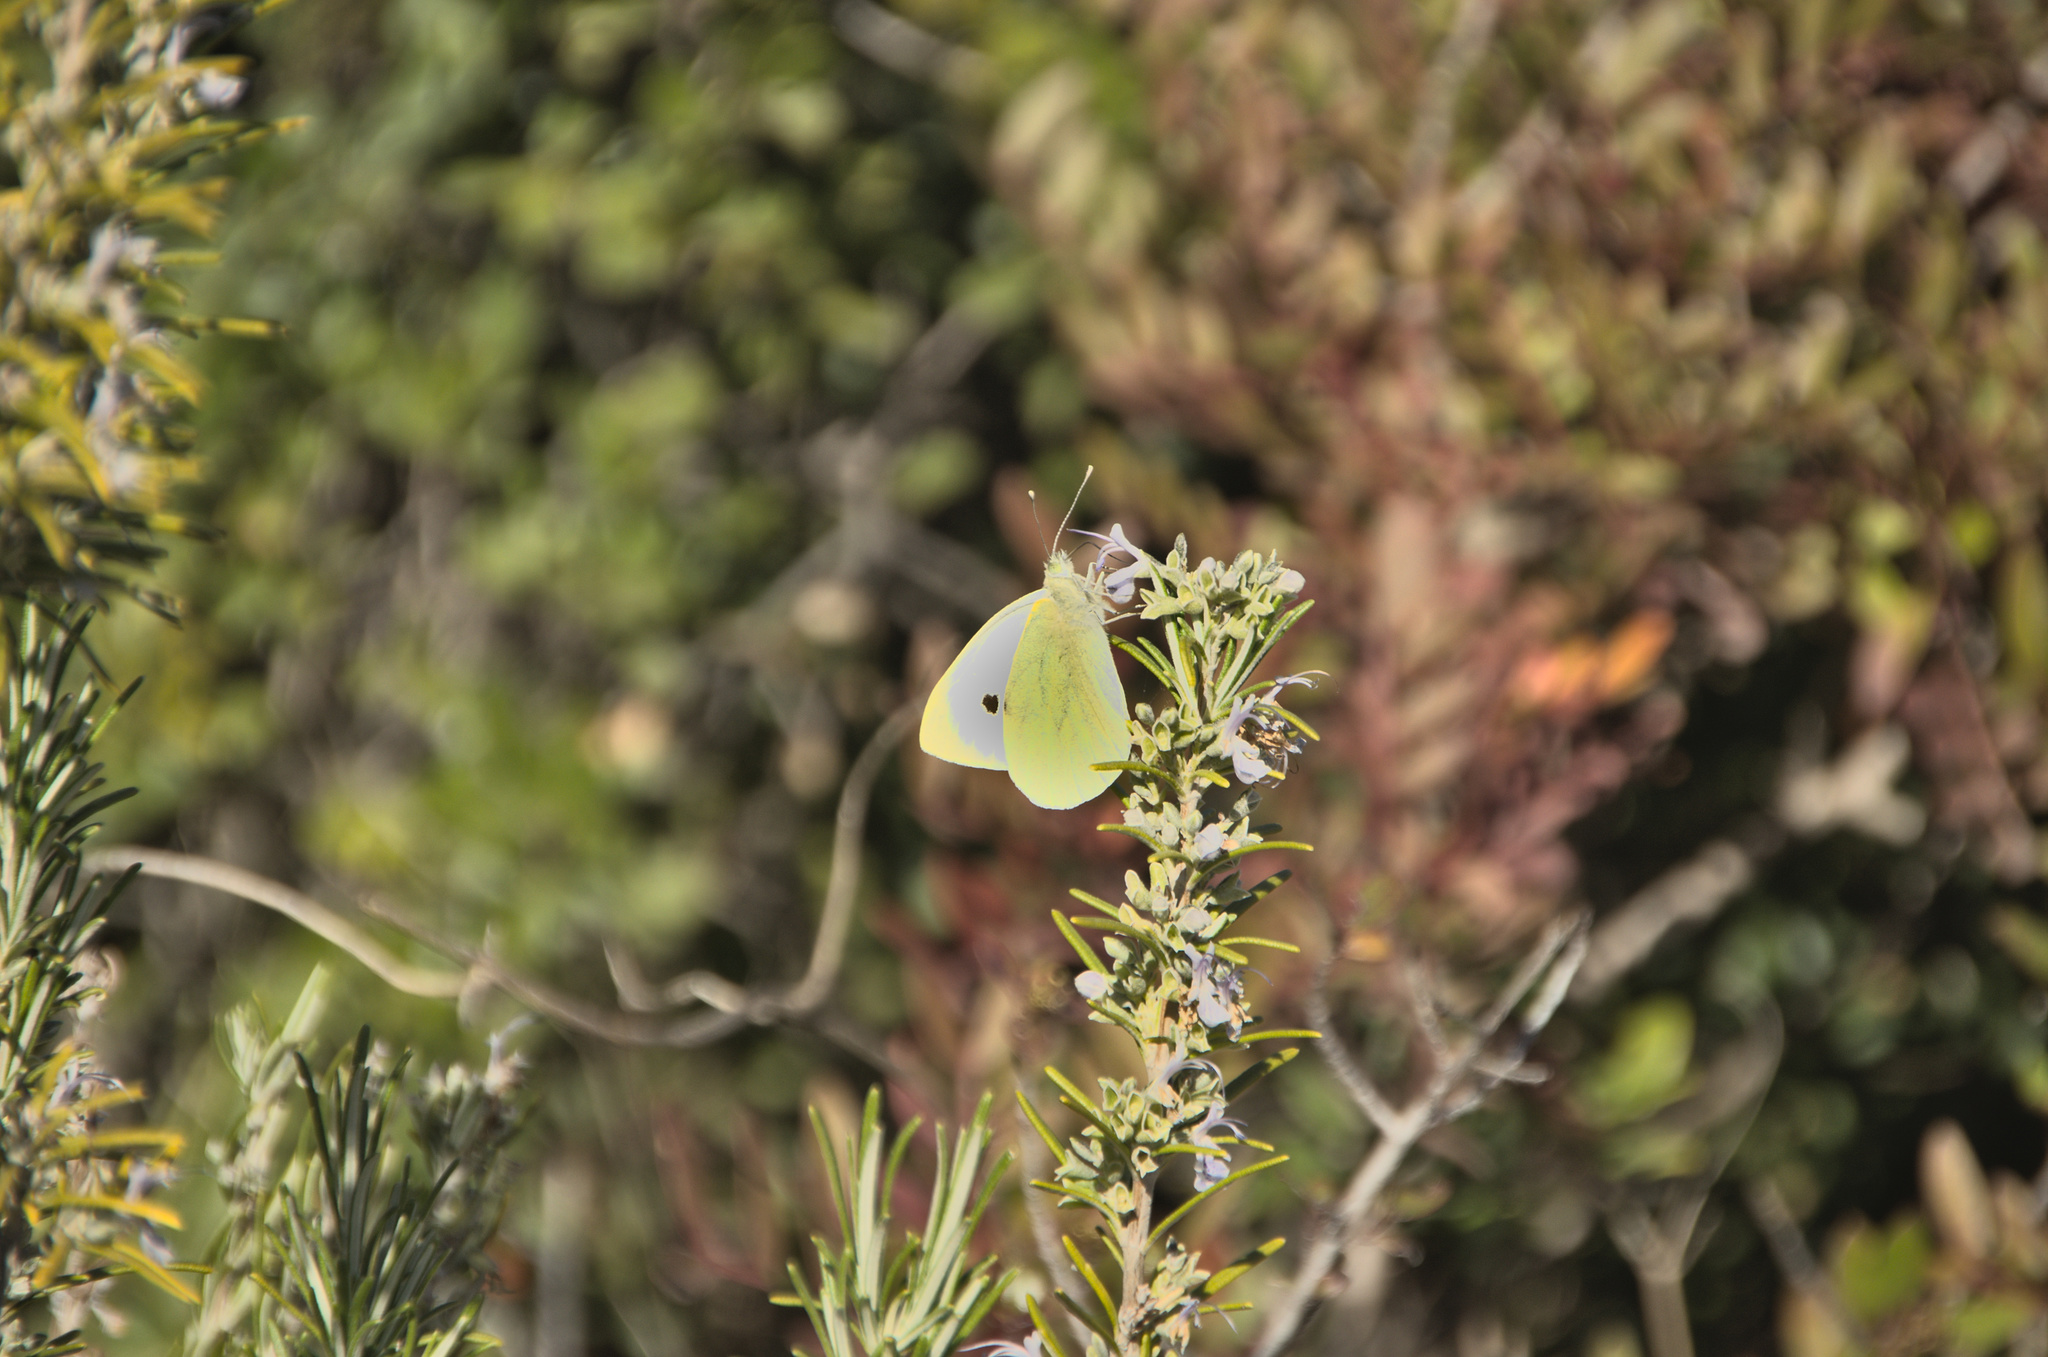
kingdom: Animalia
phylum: Arthropoda
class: Insecta
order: Lepidoptera
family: Pieridae
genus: Pieris
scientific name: Pieris brassicae
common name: Large white
